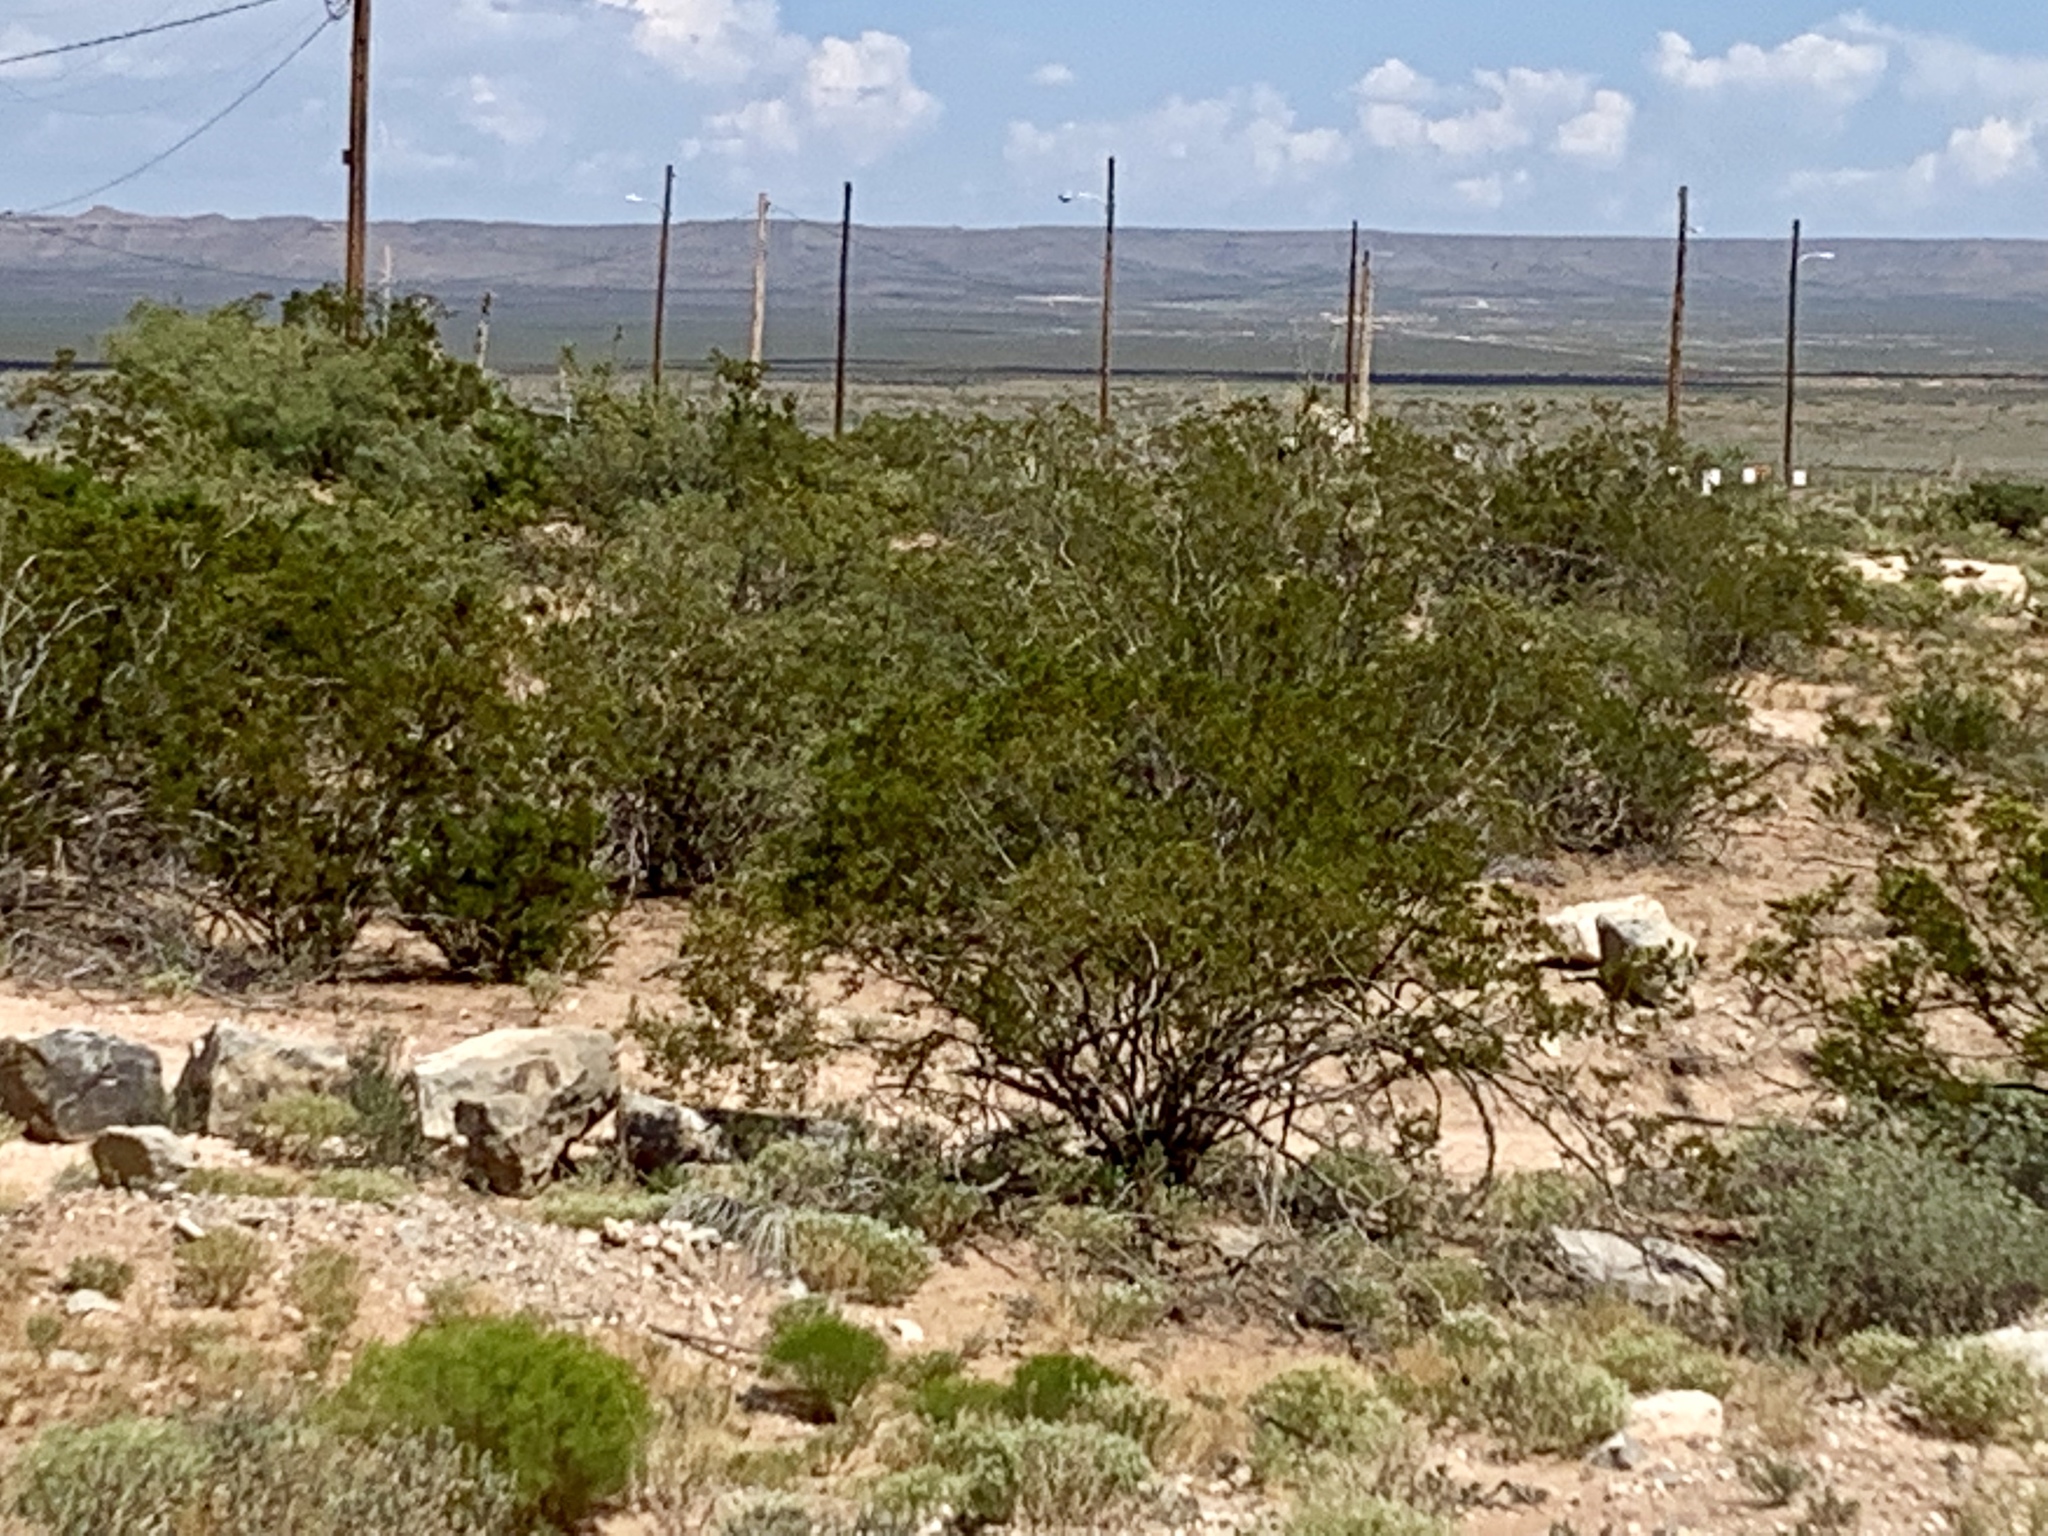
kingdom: Plantae
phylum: Tracheophyta
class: Magnoliopsida
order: Zygophyllales
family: Zygophyllaceae
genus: Larrea
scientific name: Larrea tridentata
